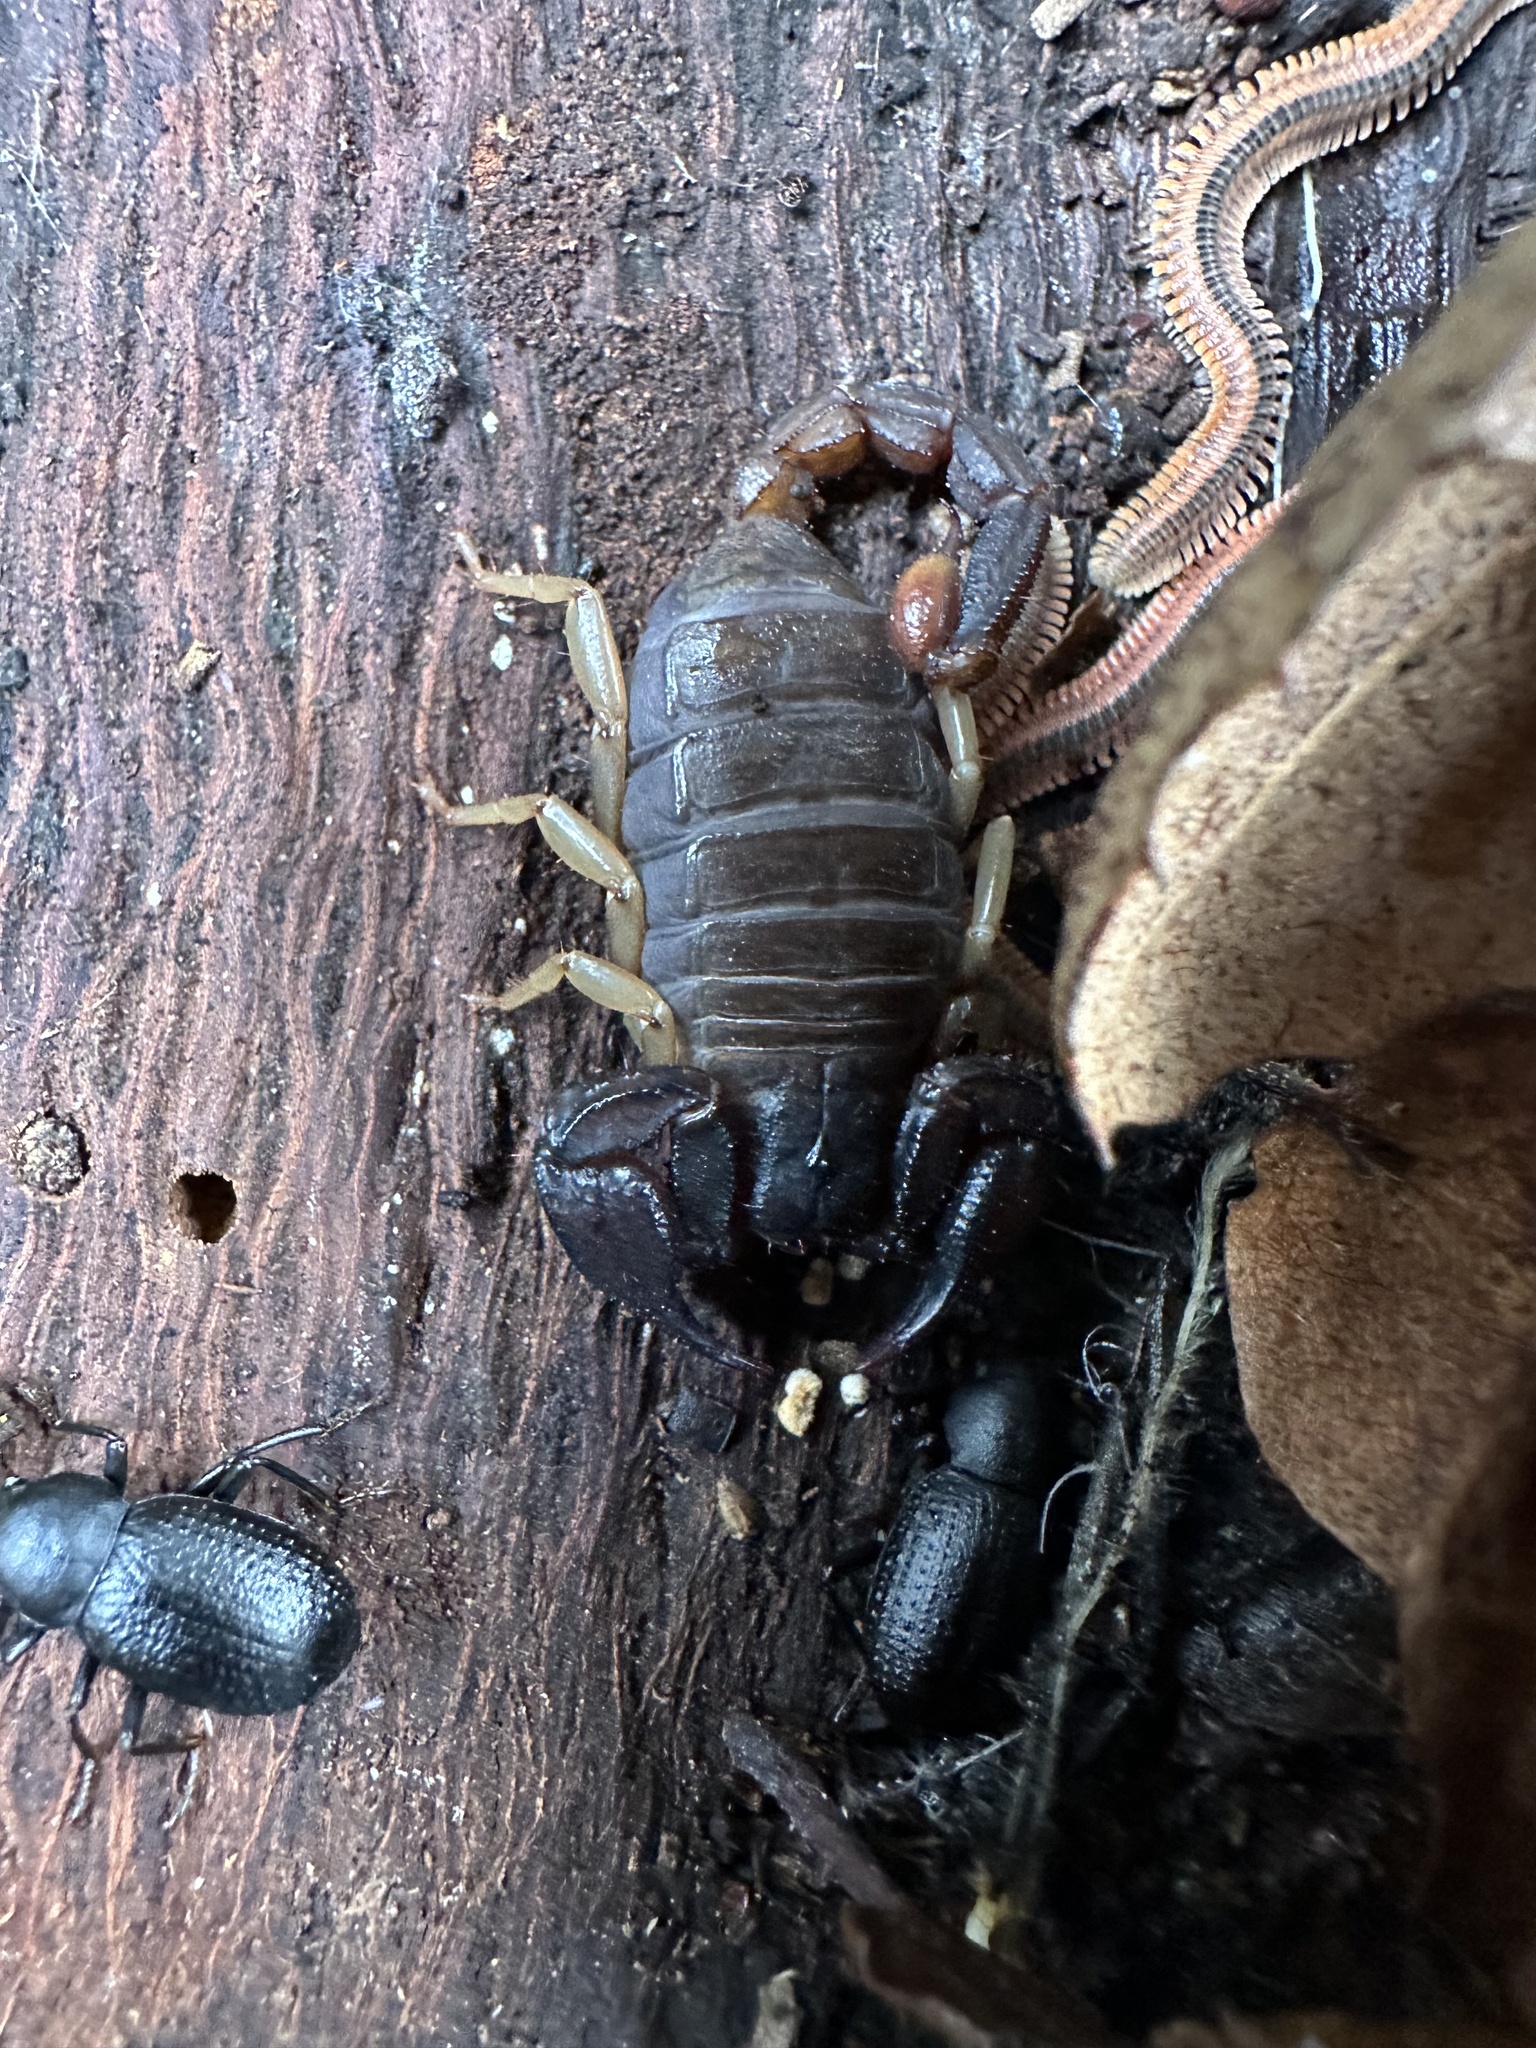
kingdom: Animalia
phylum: Arthropoda
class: Arachnida
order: Scorpiones
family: Chactidae
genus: Uroctonus
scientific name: Uroctonus mordax
